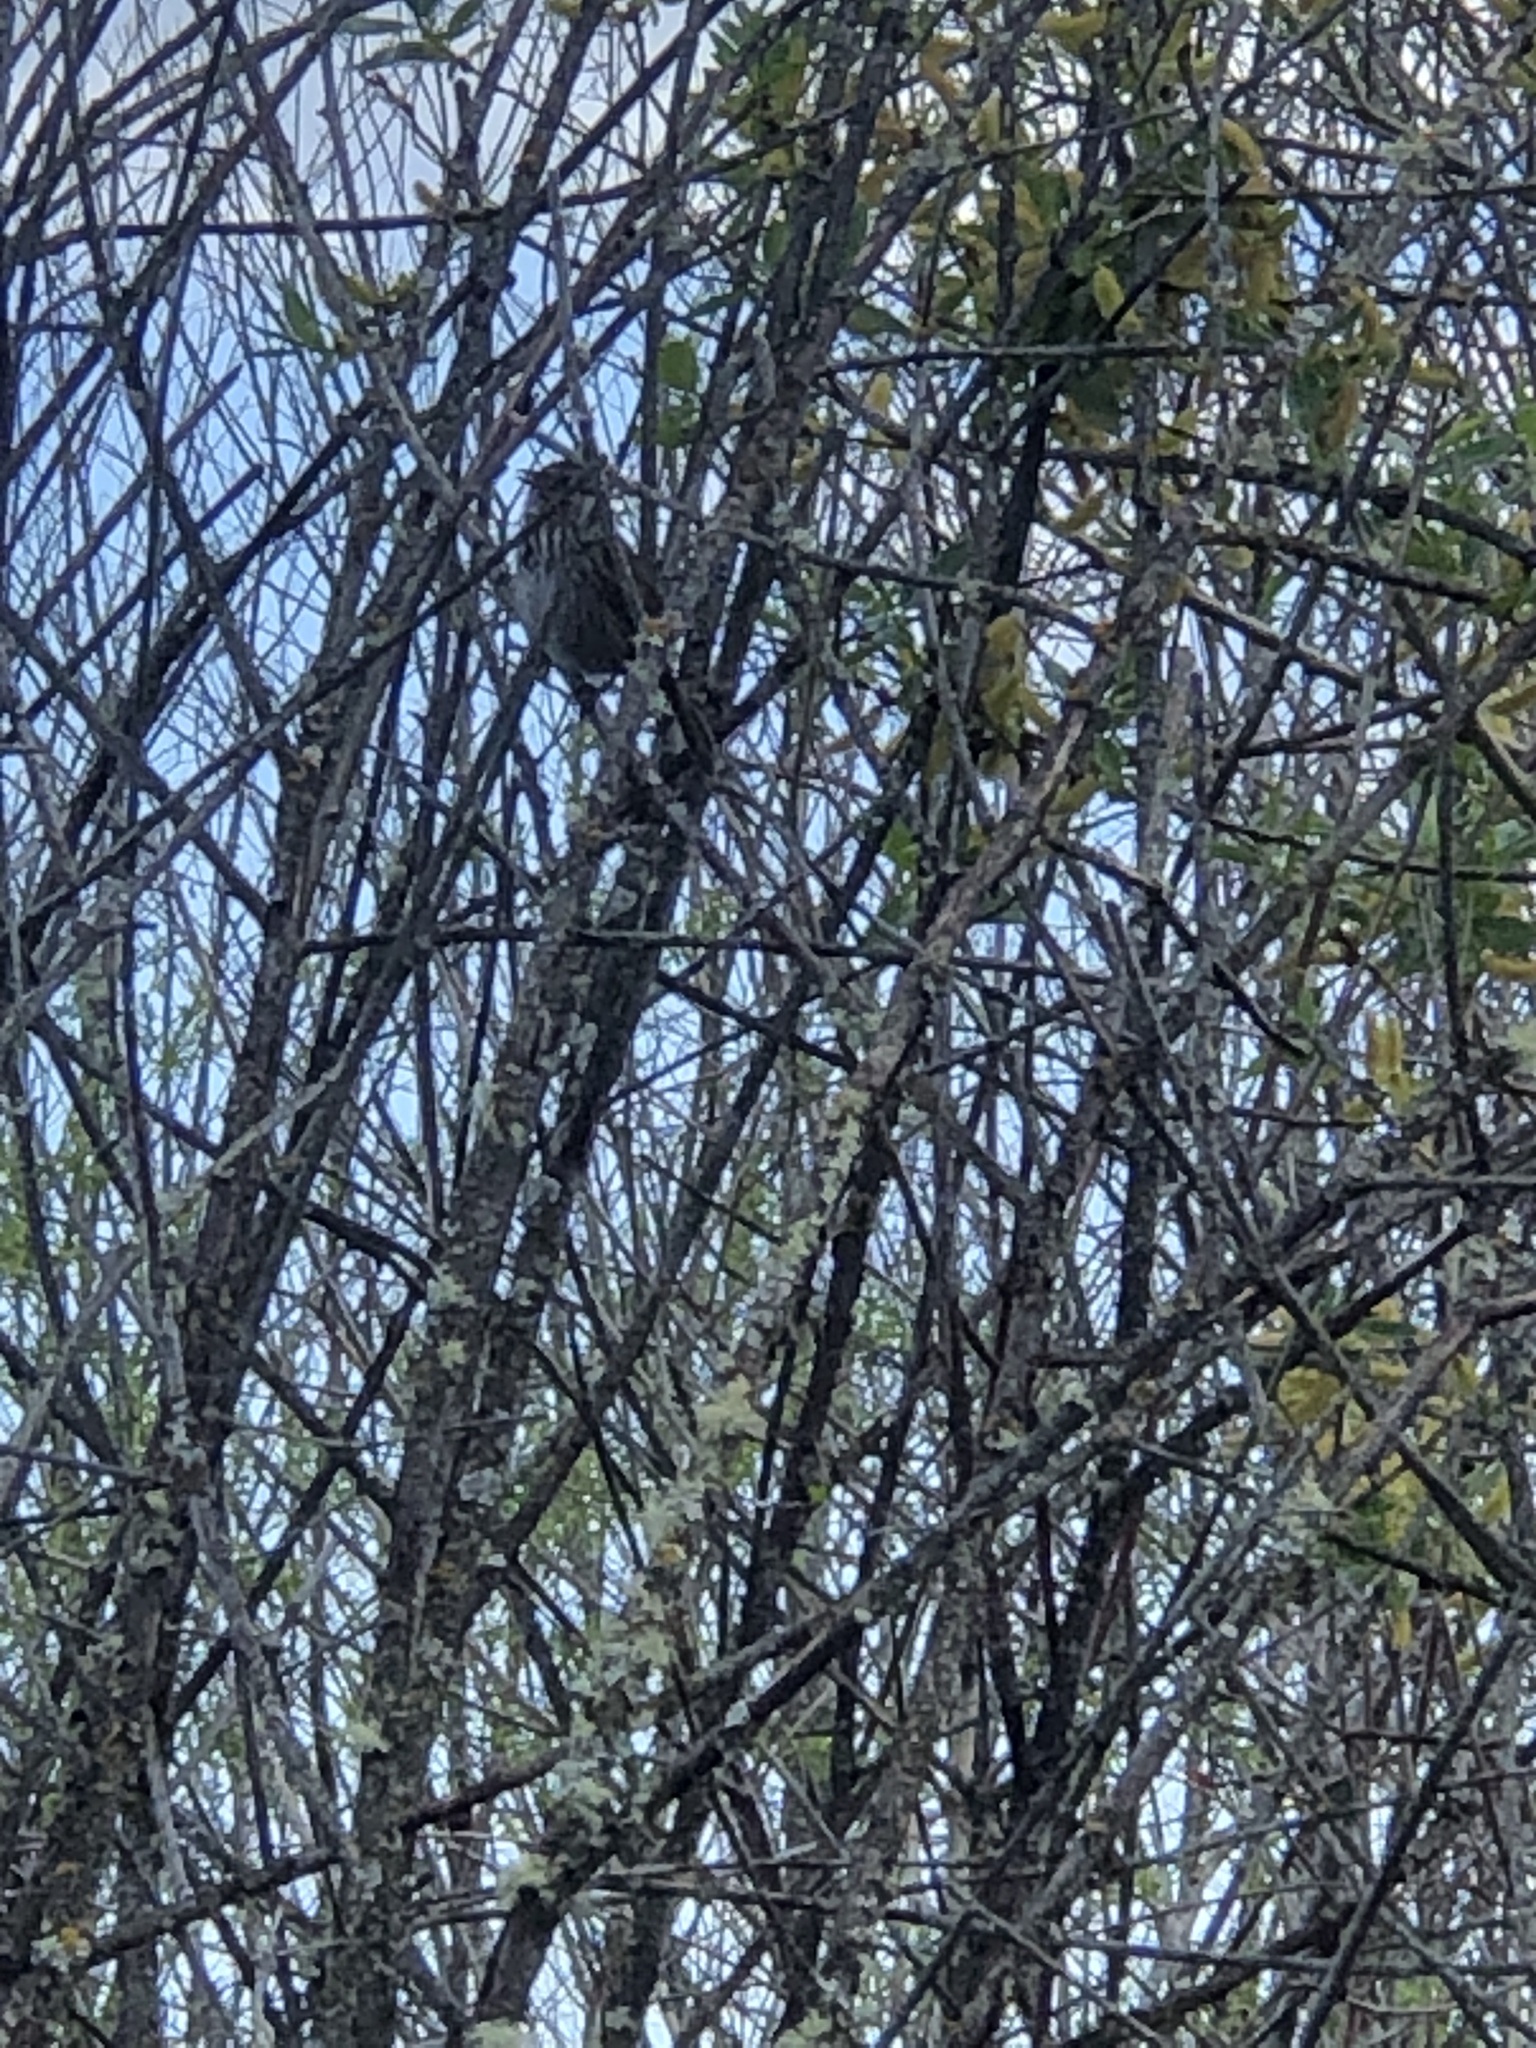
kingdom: Animalia
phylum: Chordata
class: Aves
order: Passeriformes
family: Passerellidae
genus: Melospiza
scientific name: Melospiza melodia
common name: Song sparrow
